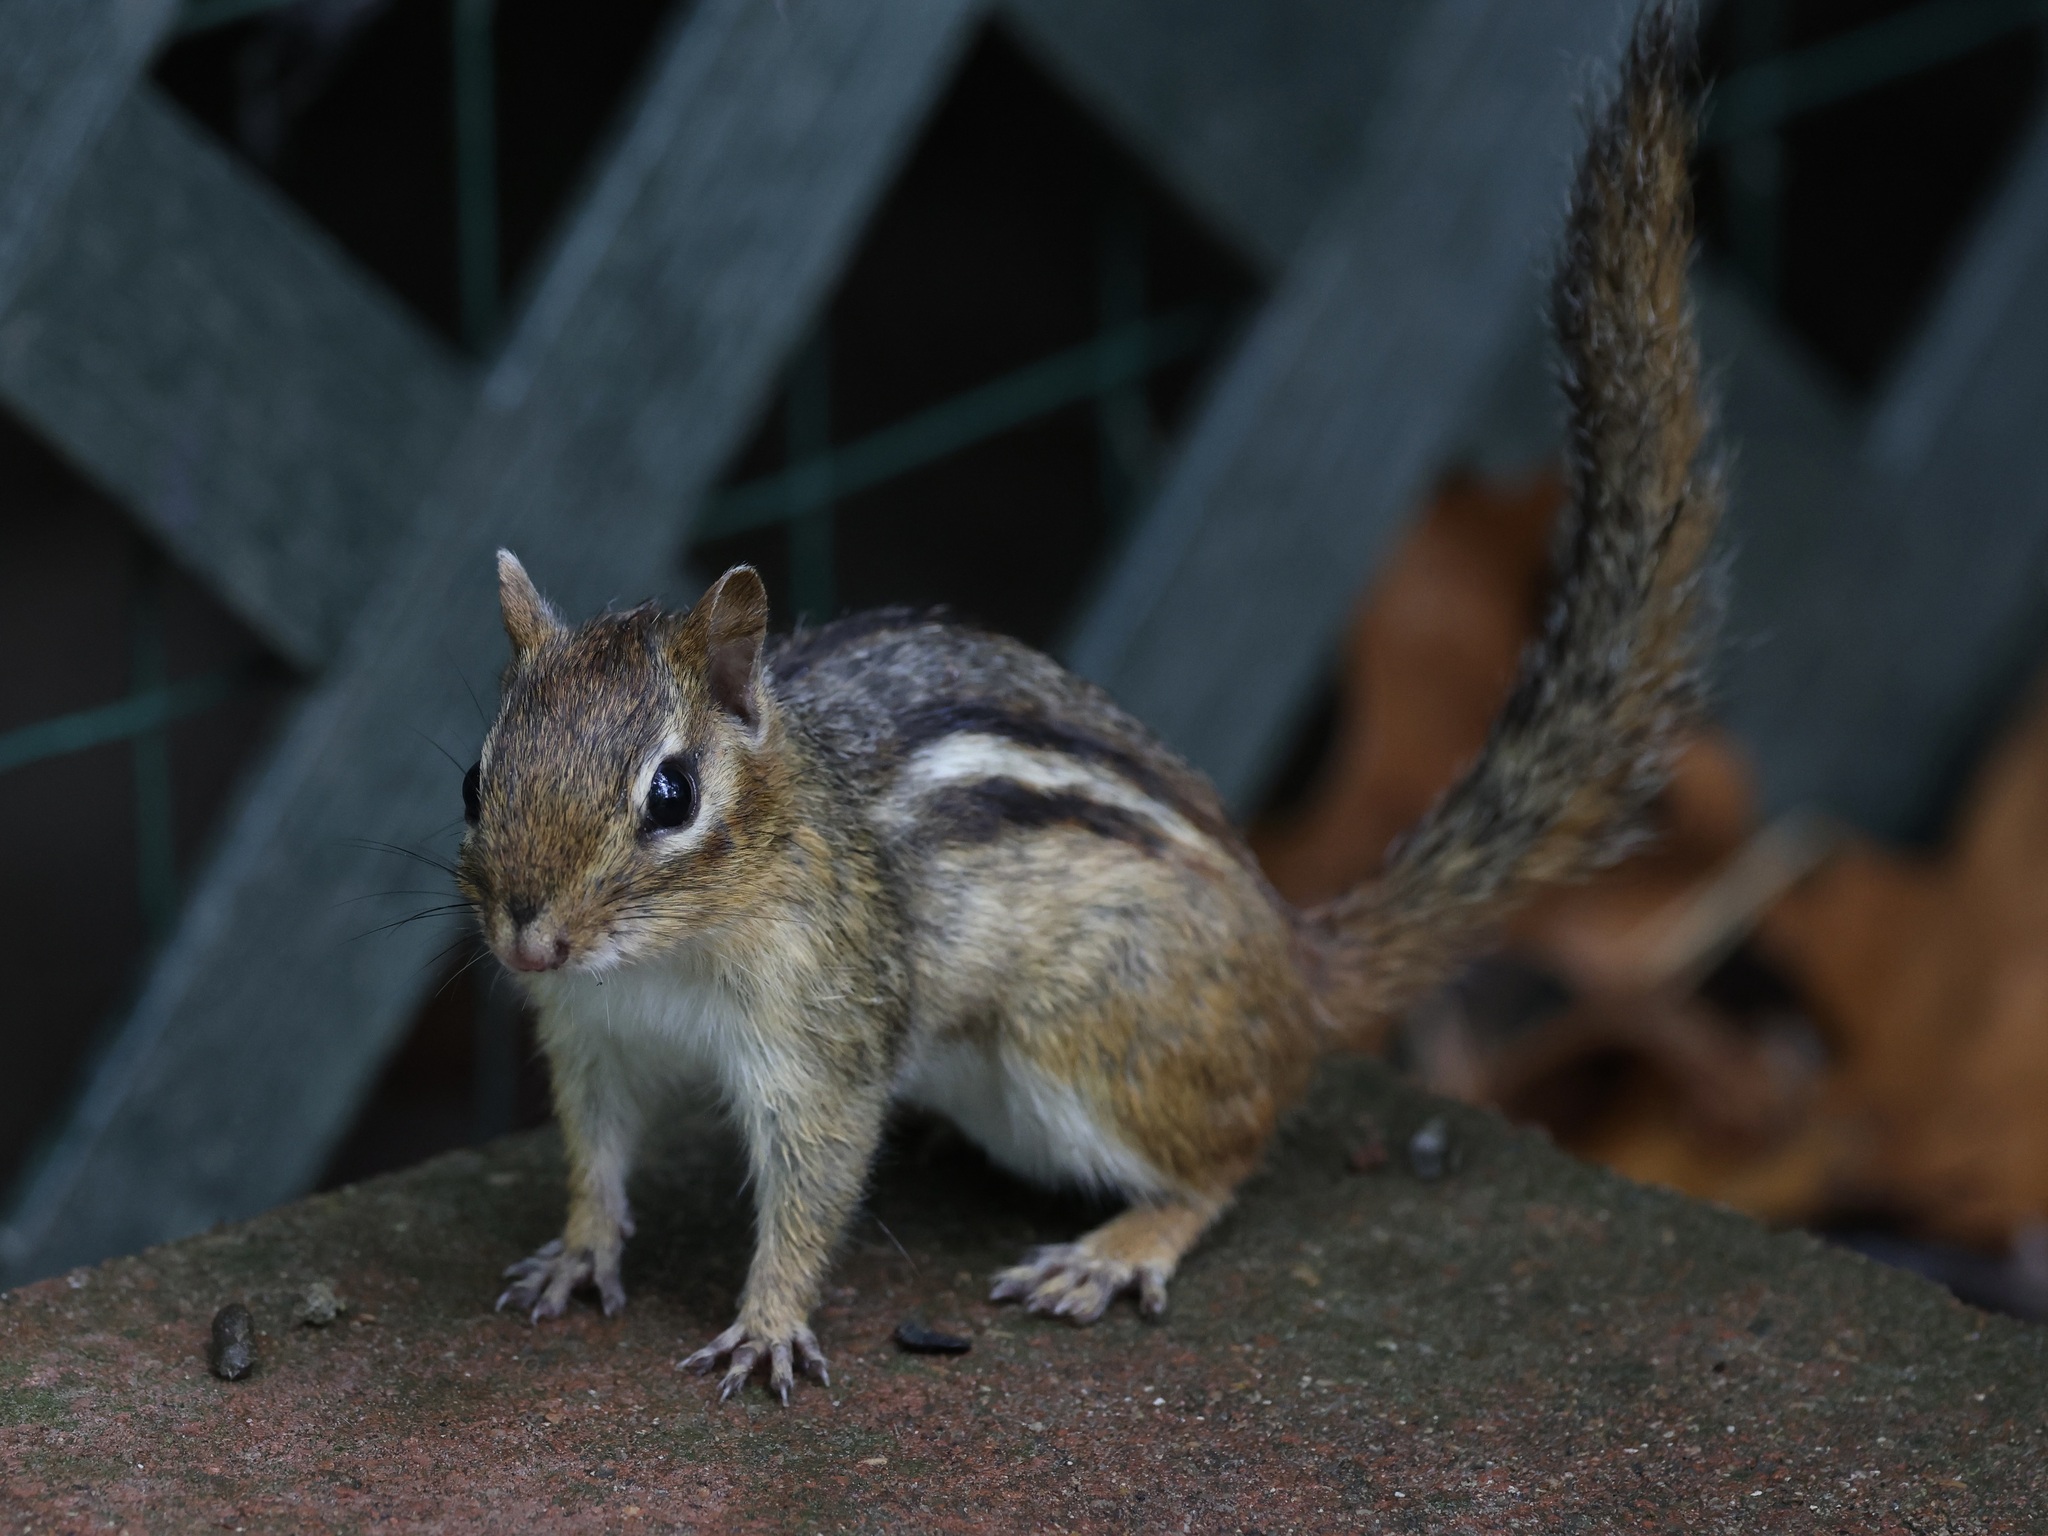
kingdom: Animalia
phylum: Chordata
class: Mammalia
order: Rodentia
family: Sciuridae
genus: Tamias
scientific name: Tamias striatus
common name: Eastern chipmunk
